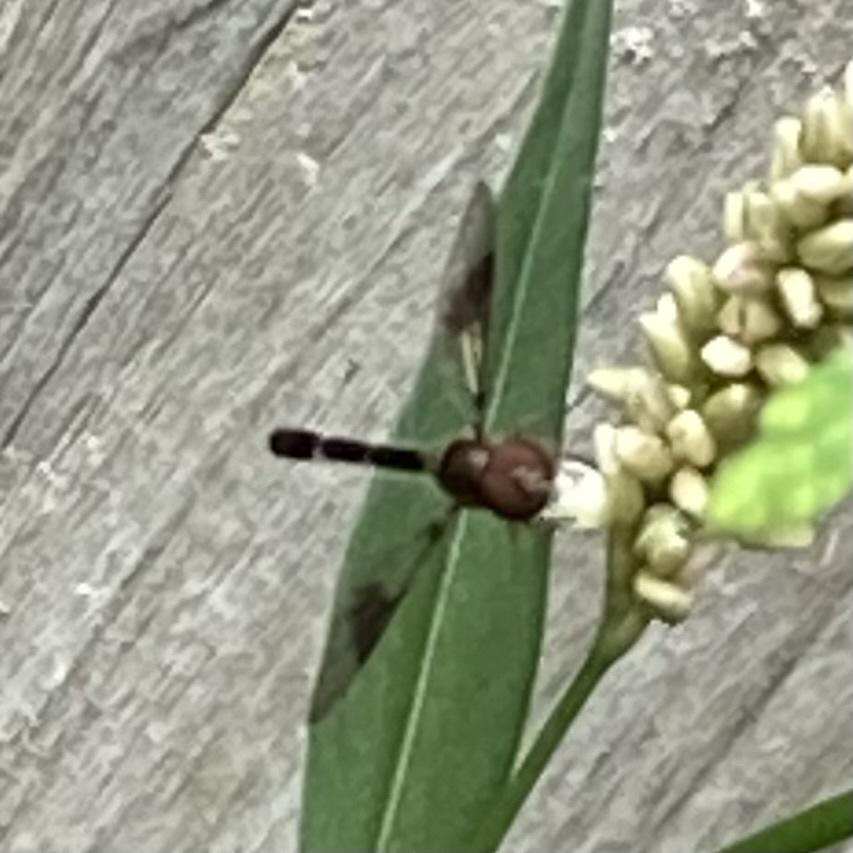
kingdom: Animalia
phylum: Arthropoda
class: Insecta
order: Diptera
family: Syrphidae
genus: Hypocritanus
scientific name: Hypocritanus fascipennis
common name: Eastern band-winged hover fly
